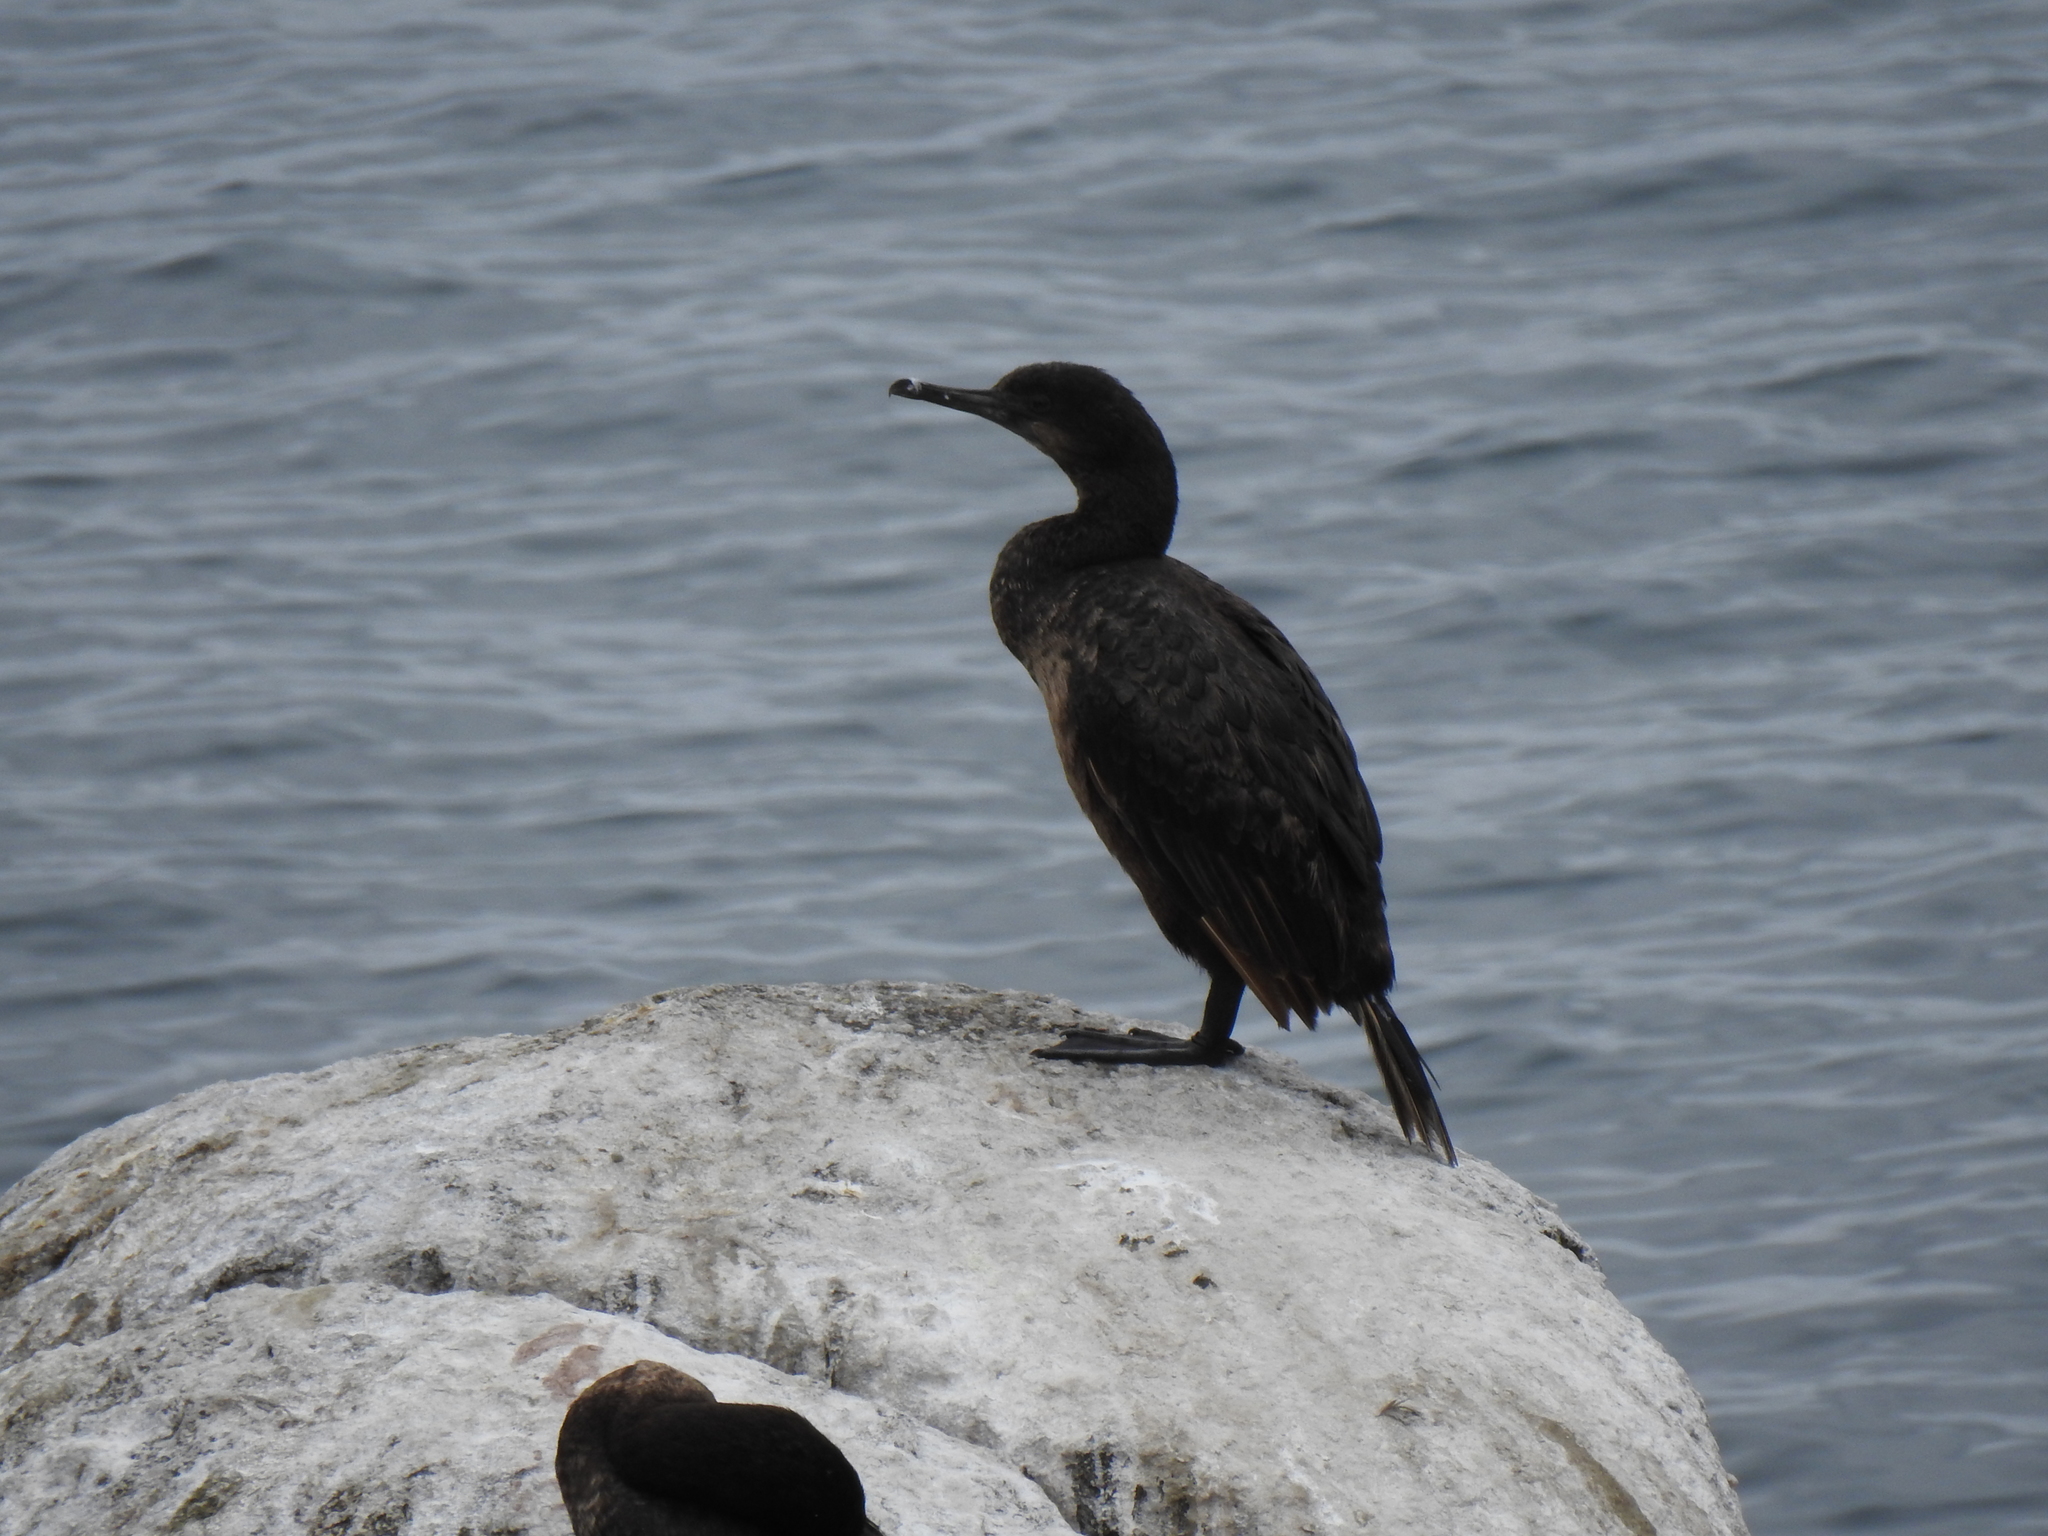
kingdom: Animalia
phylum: Chordata
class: Aves
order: Suliformes
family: Phalacrocoracidae
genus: Urile
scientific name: Urile penicillatus
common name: Brandt's cormorant
